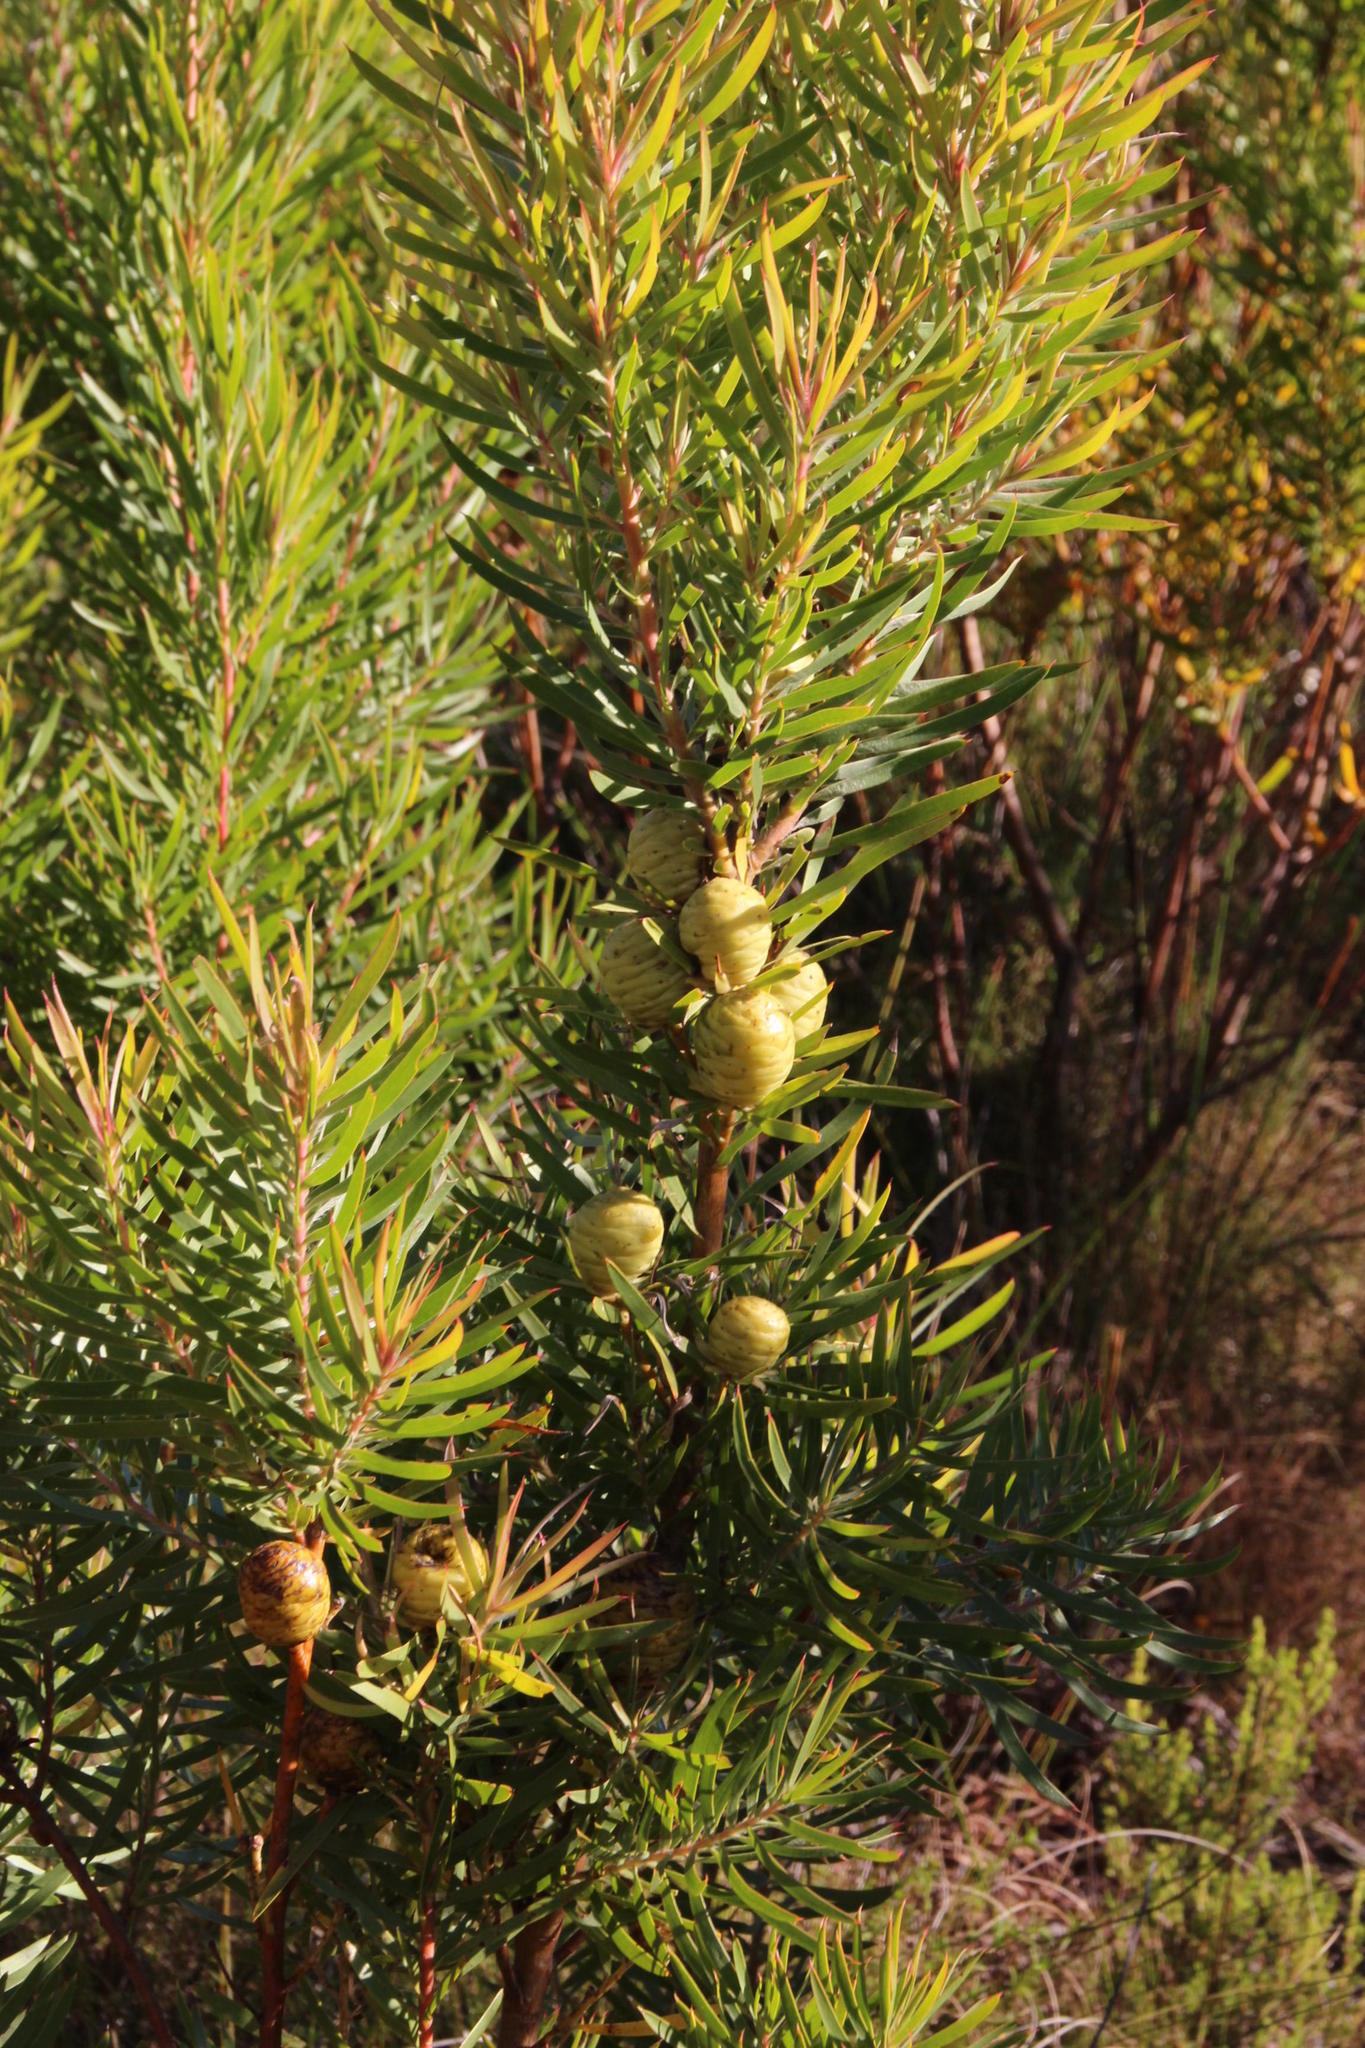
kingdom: Plantae
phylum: Tracheophyta
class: Magnoliopsida
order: Proteales
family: Proteaceae
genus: Leucadendron
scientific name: Leucadendron salicifolium
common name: Common stream conebush
